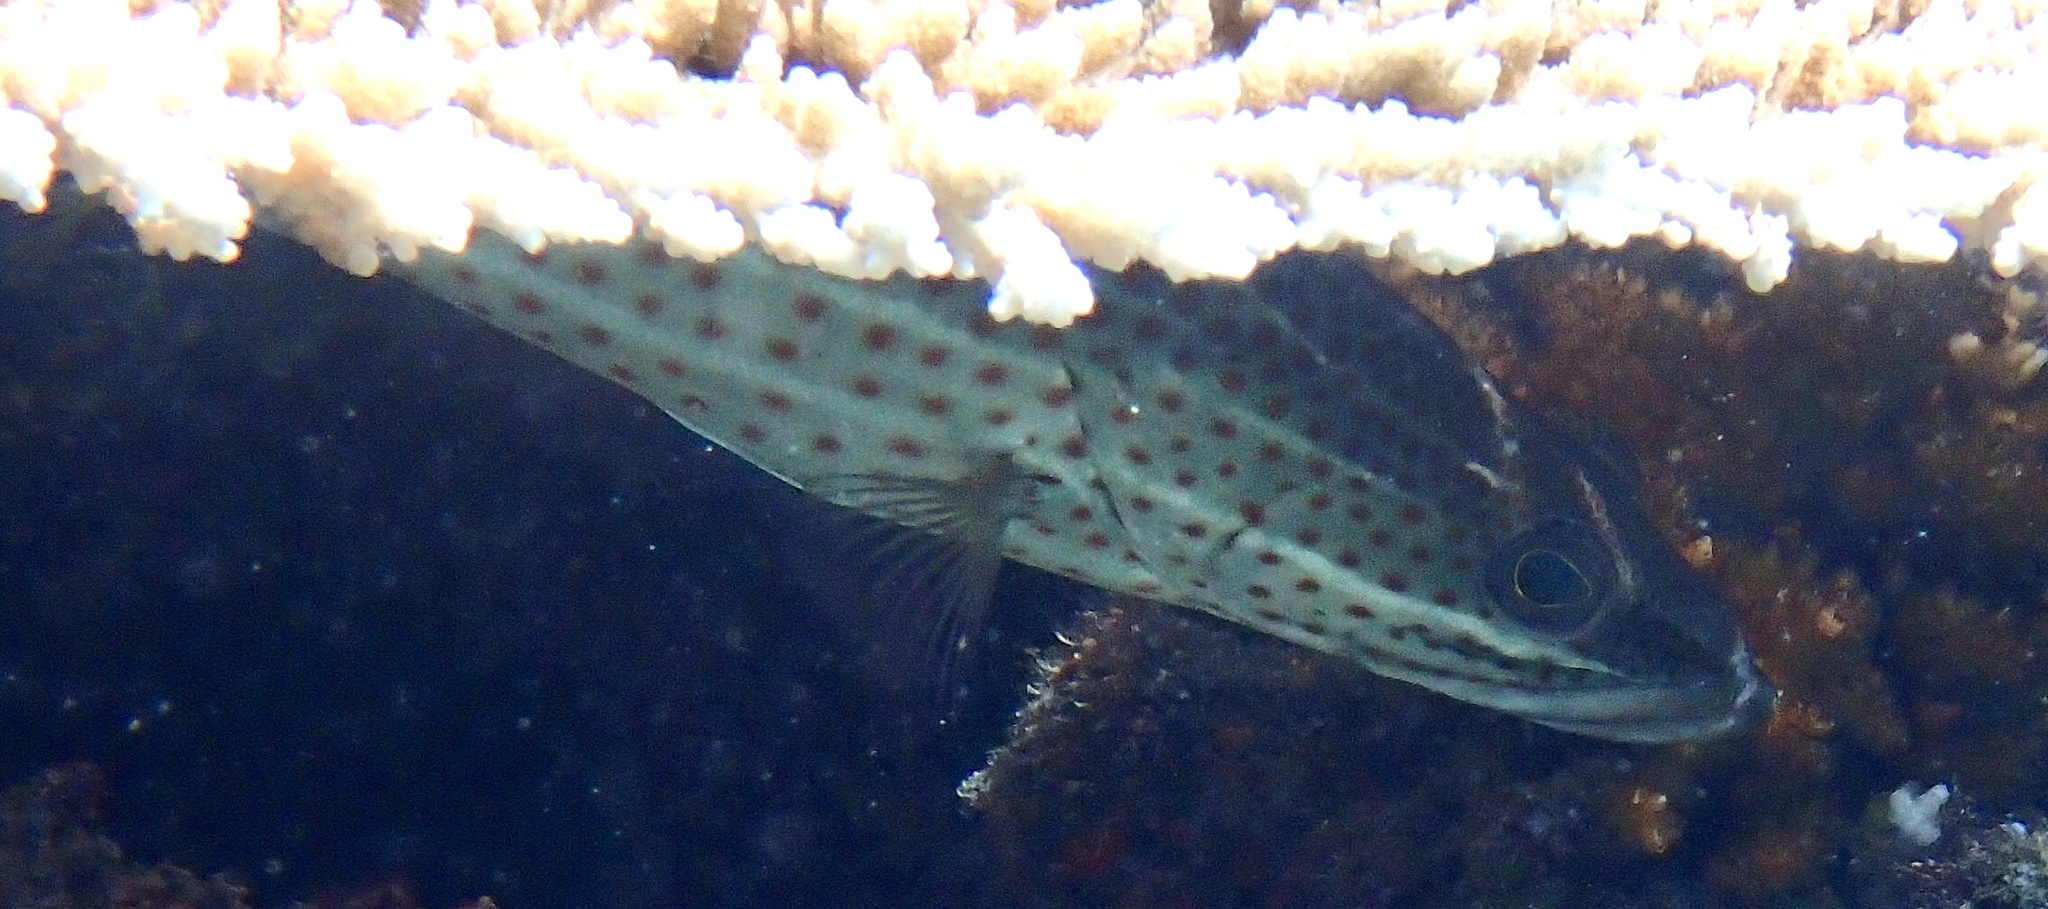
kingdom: Animalia
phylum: Chordata
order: Perciformes
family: Serranidae
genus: Anyperodon
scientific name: Anyperodon leucogrammicus
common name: Slender grouper
